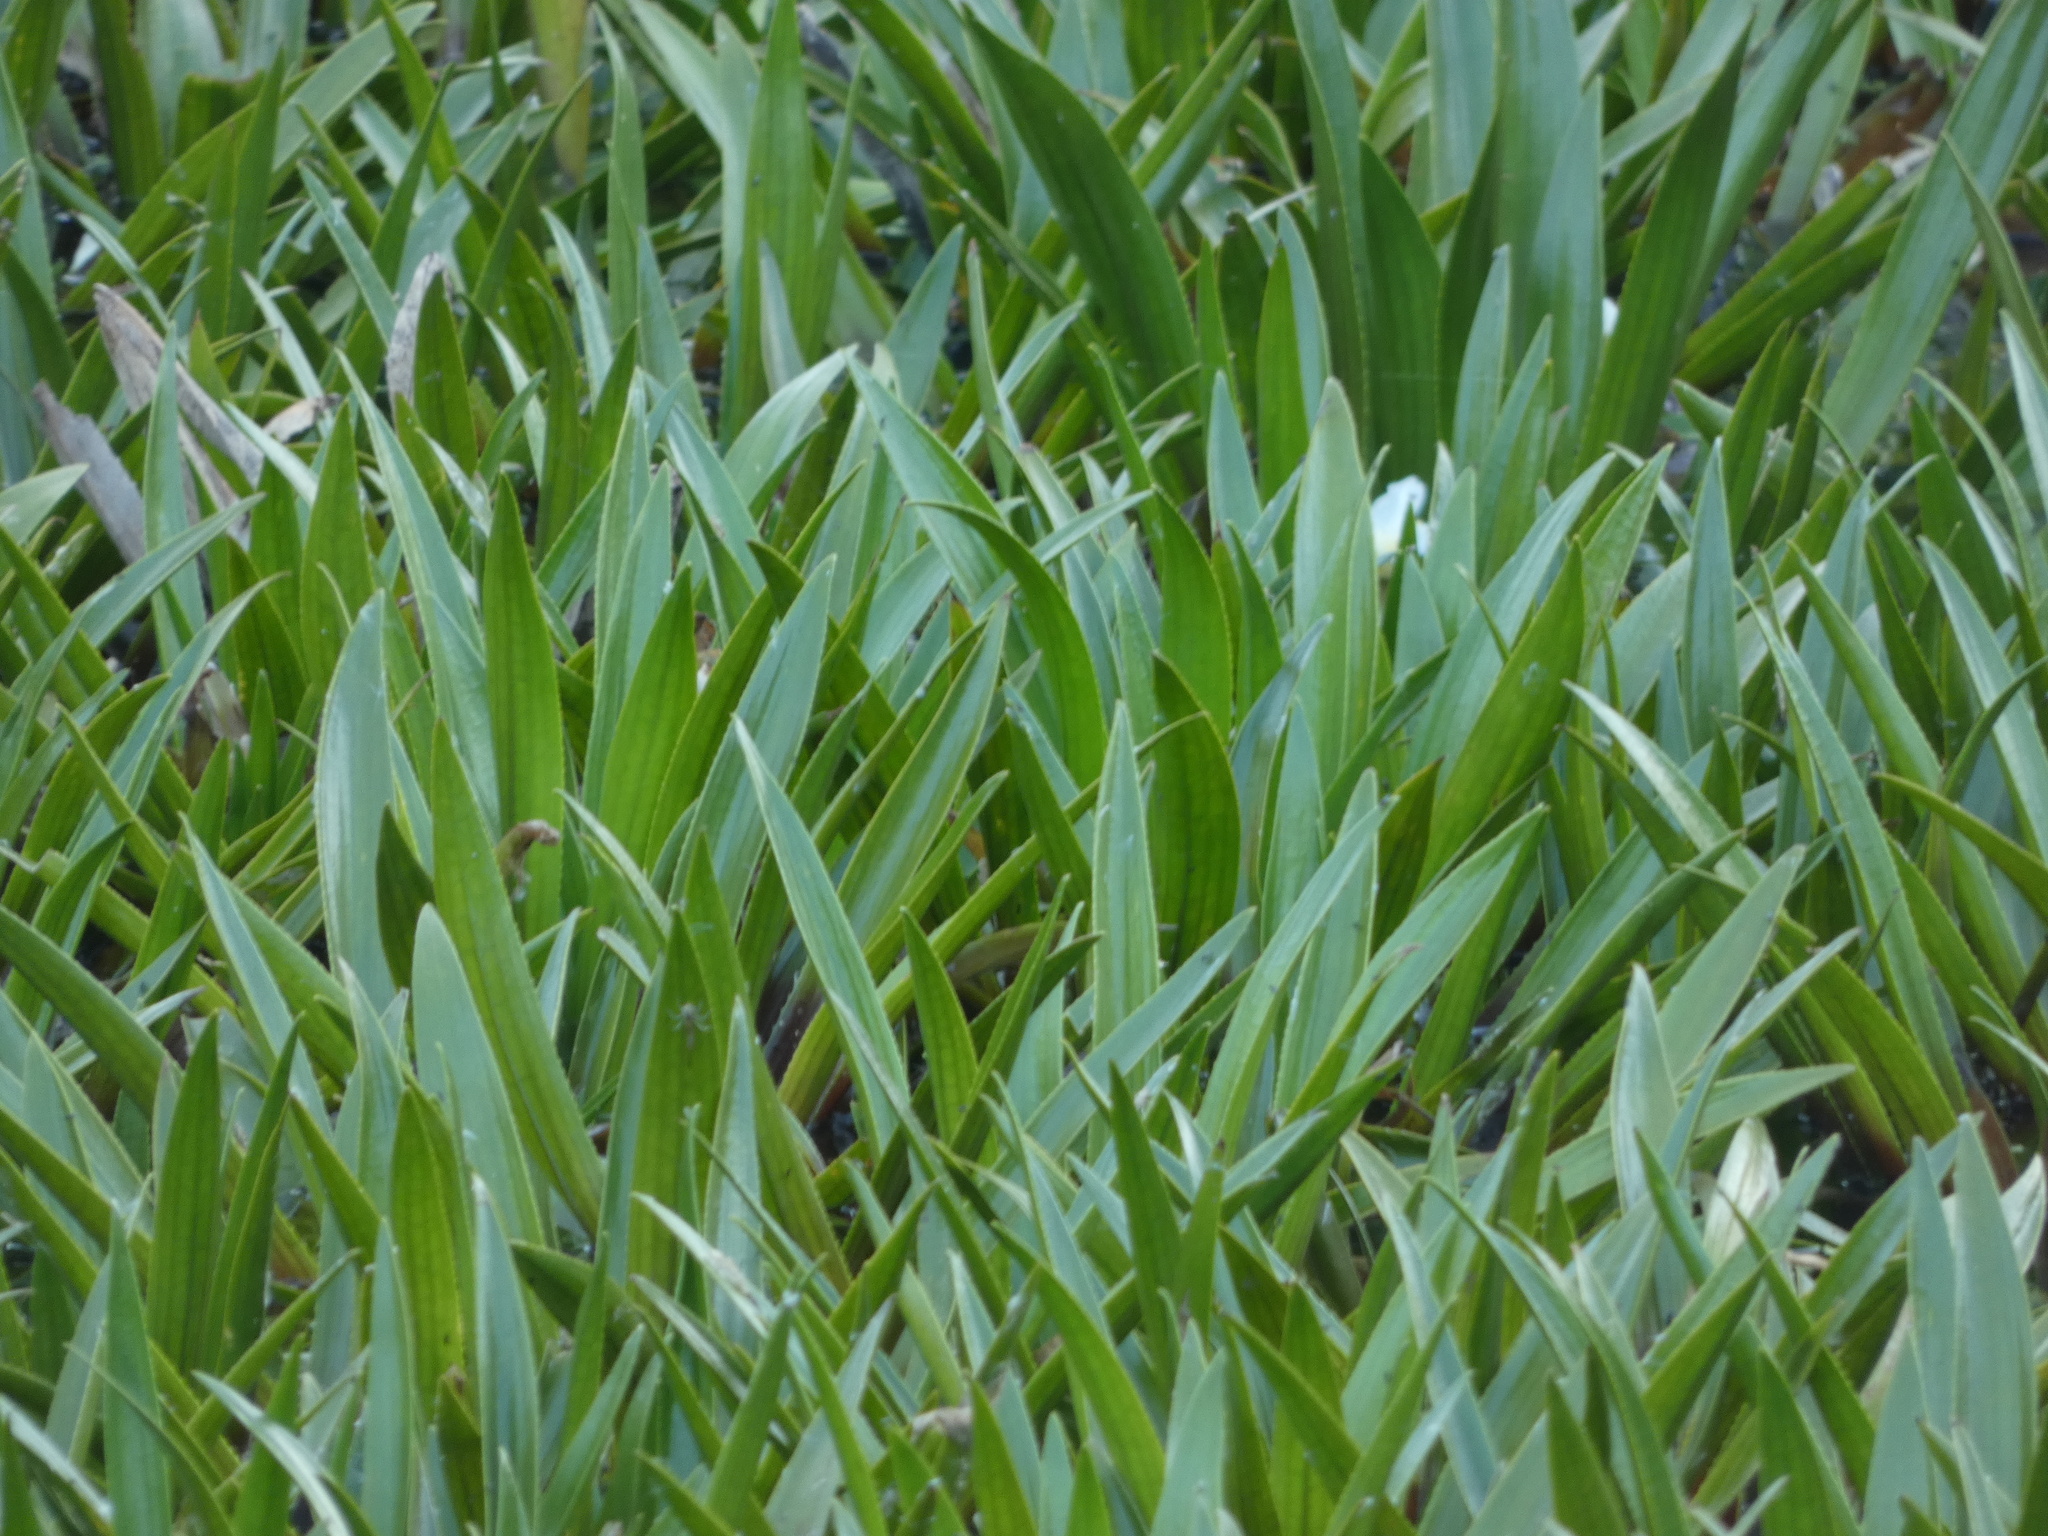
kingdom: Plantae
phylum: Tracheophyta
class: Liliopsida
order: Alismatales
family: Hydrocharitaceae
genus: Stratiotes
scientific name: Stratiotes aloides
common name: Water-soldier
